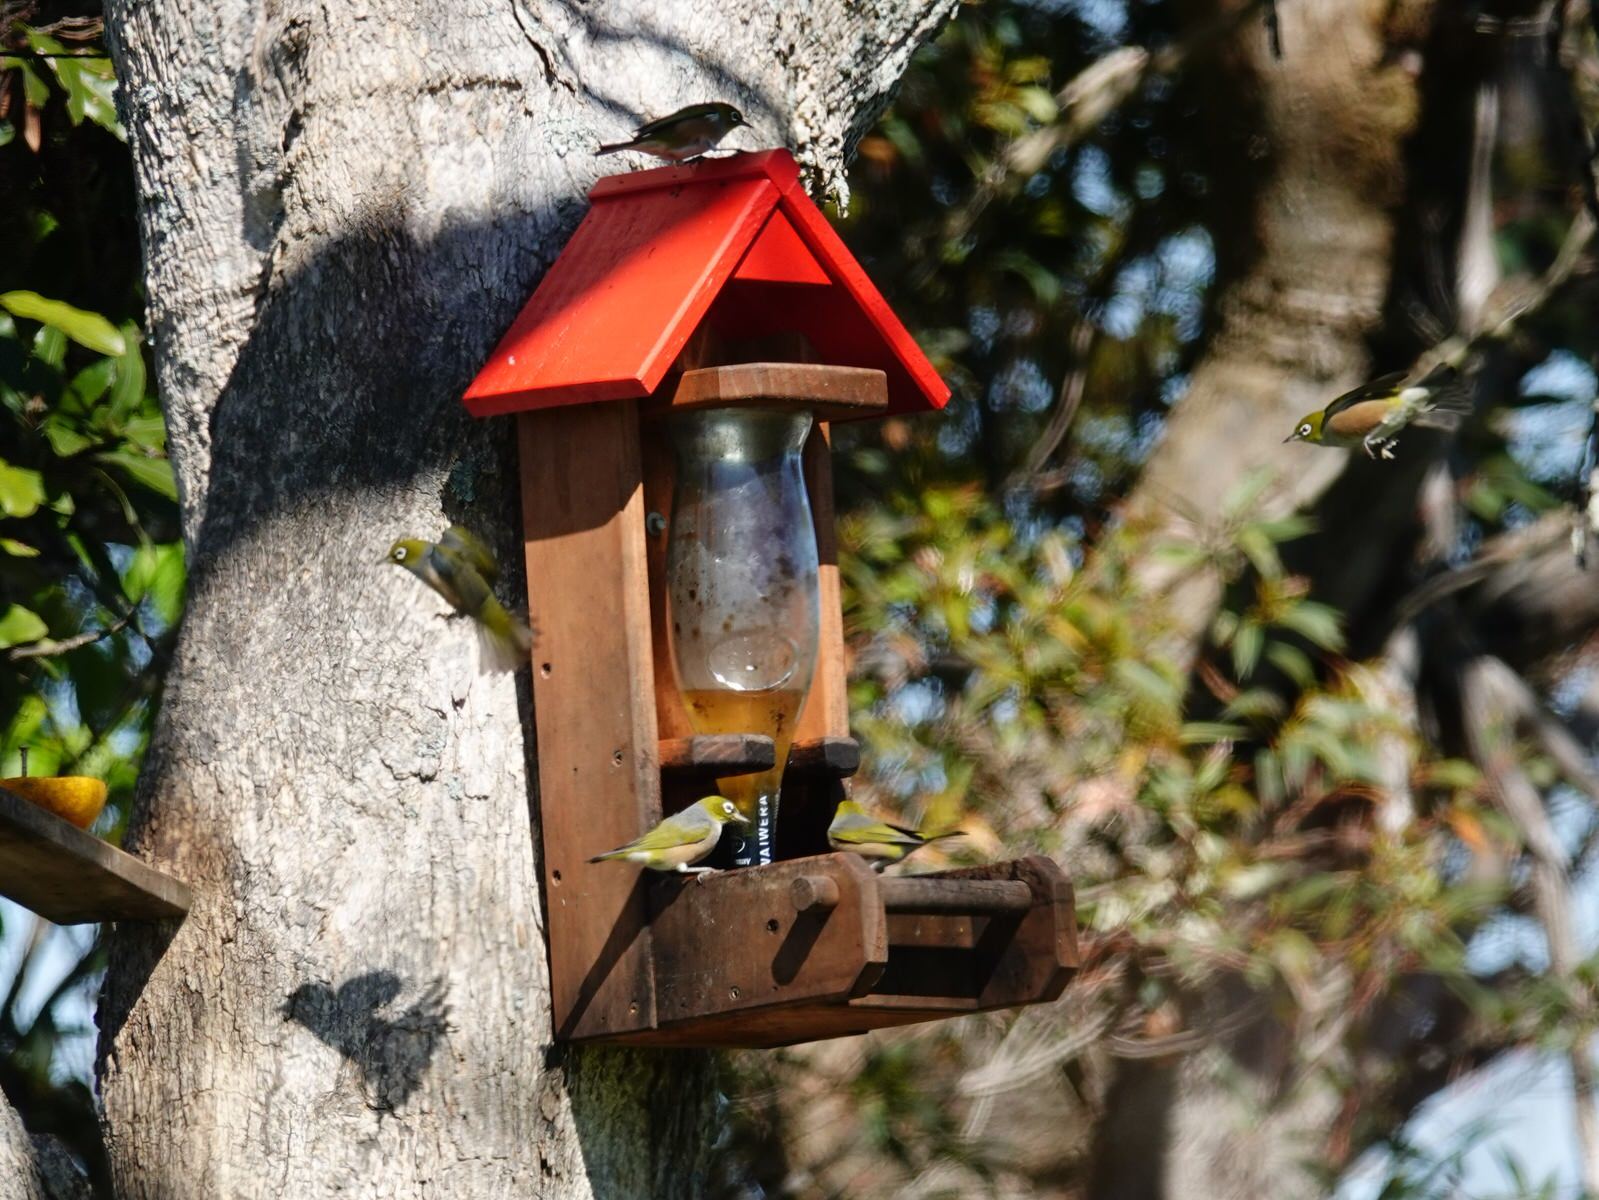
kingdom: Animalia
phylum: Chordata
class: Aves
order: Passeriformes
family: Zosteropidae
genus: Zosterops
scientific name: Zosterops lateralis
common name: Silvereye
